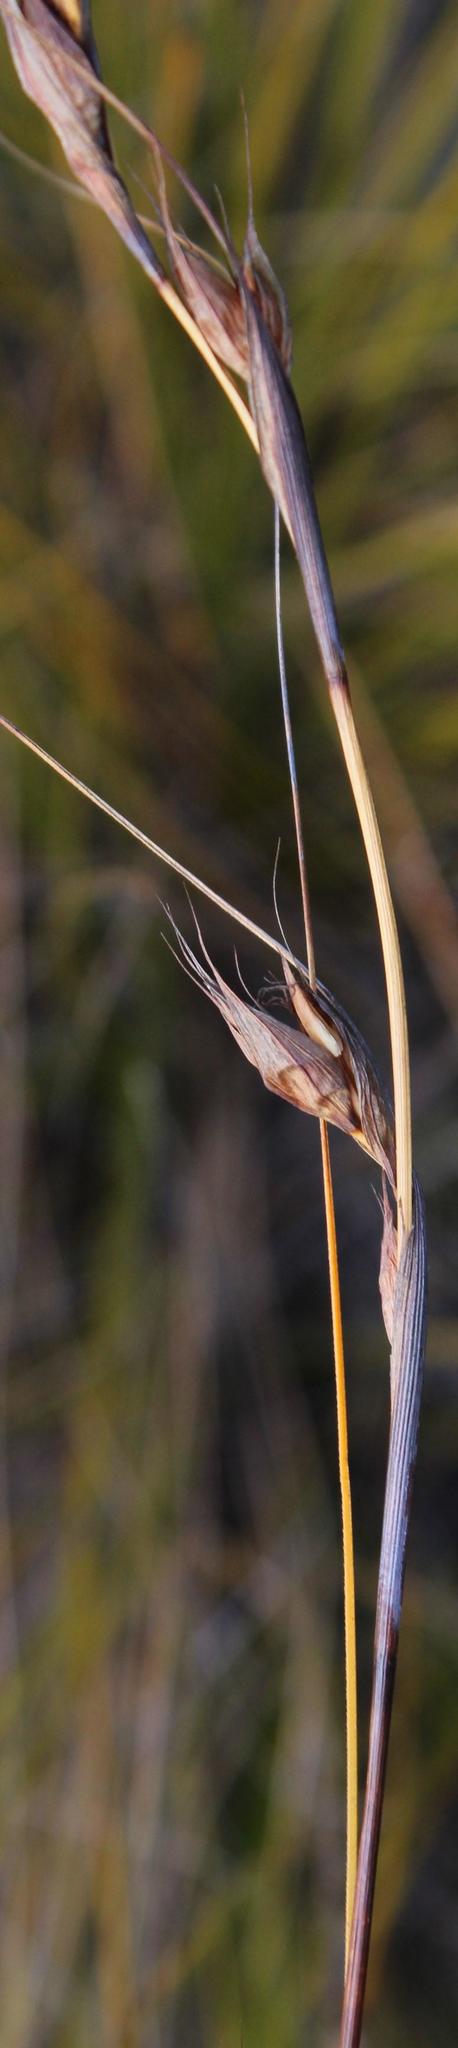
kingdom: Plantae
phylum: Tracheophyta
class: Liliopsida
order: Poales
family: Cyperaceae
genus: Tetraria
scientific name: Tetraria fourcadei
